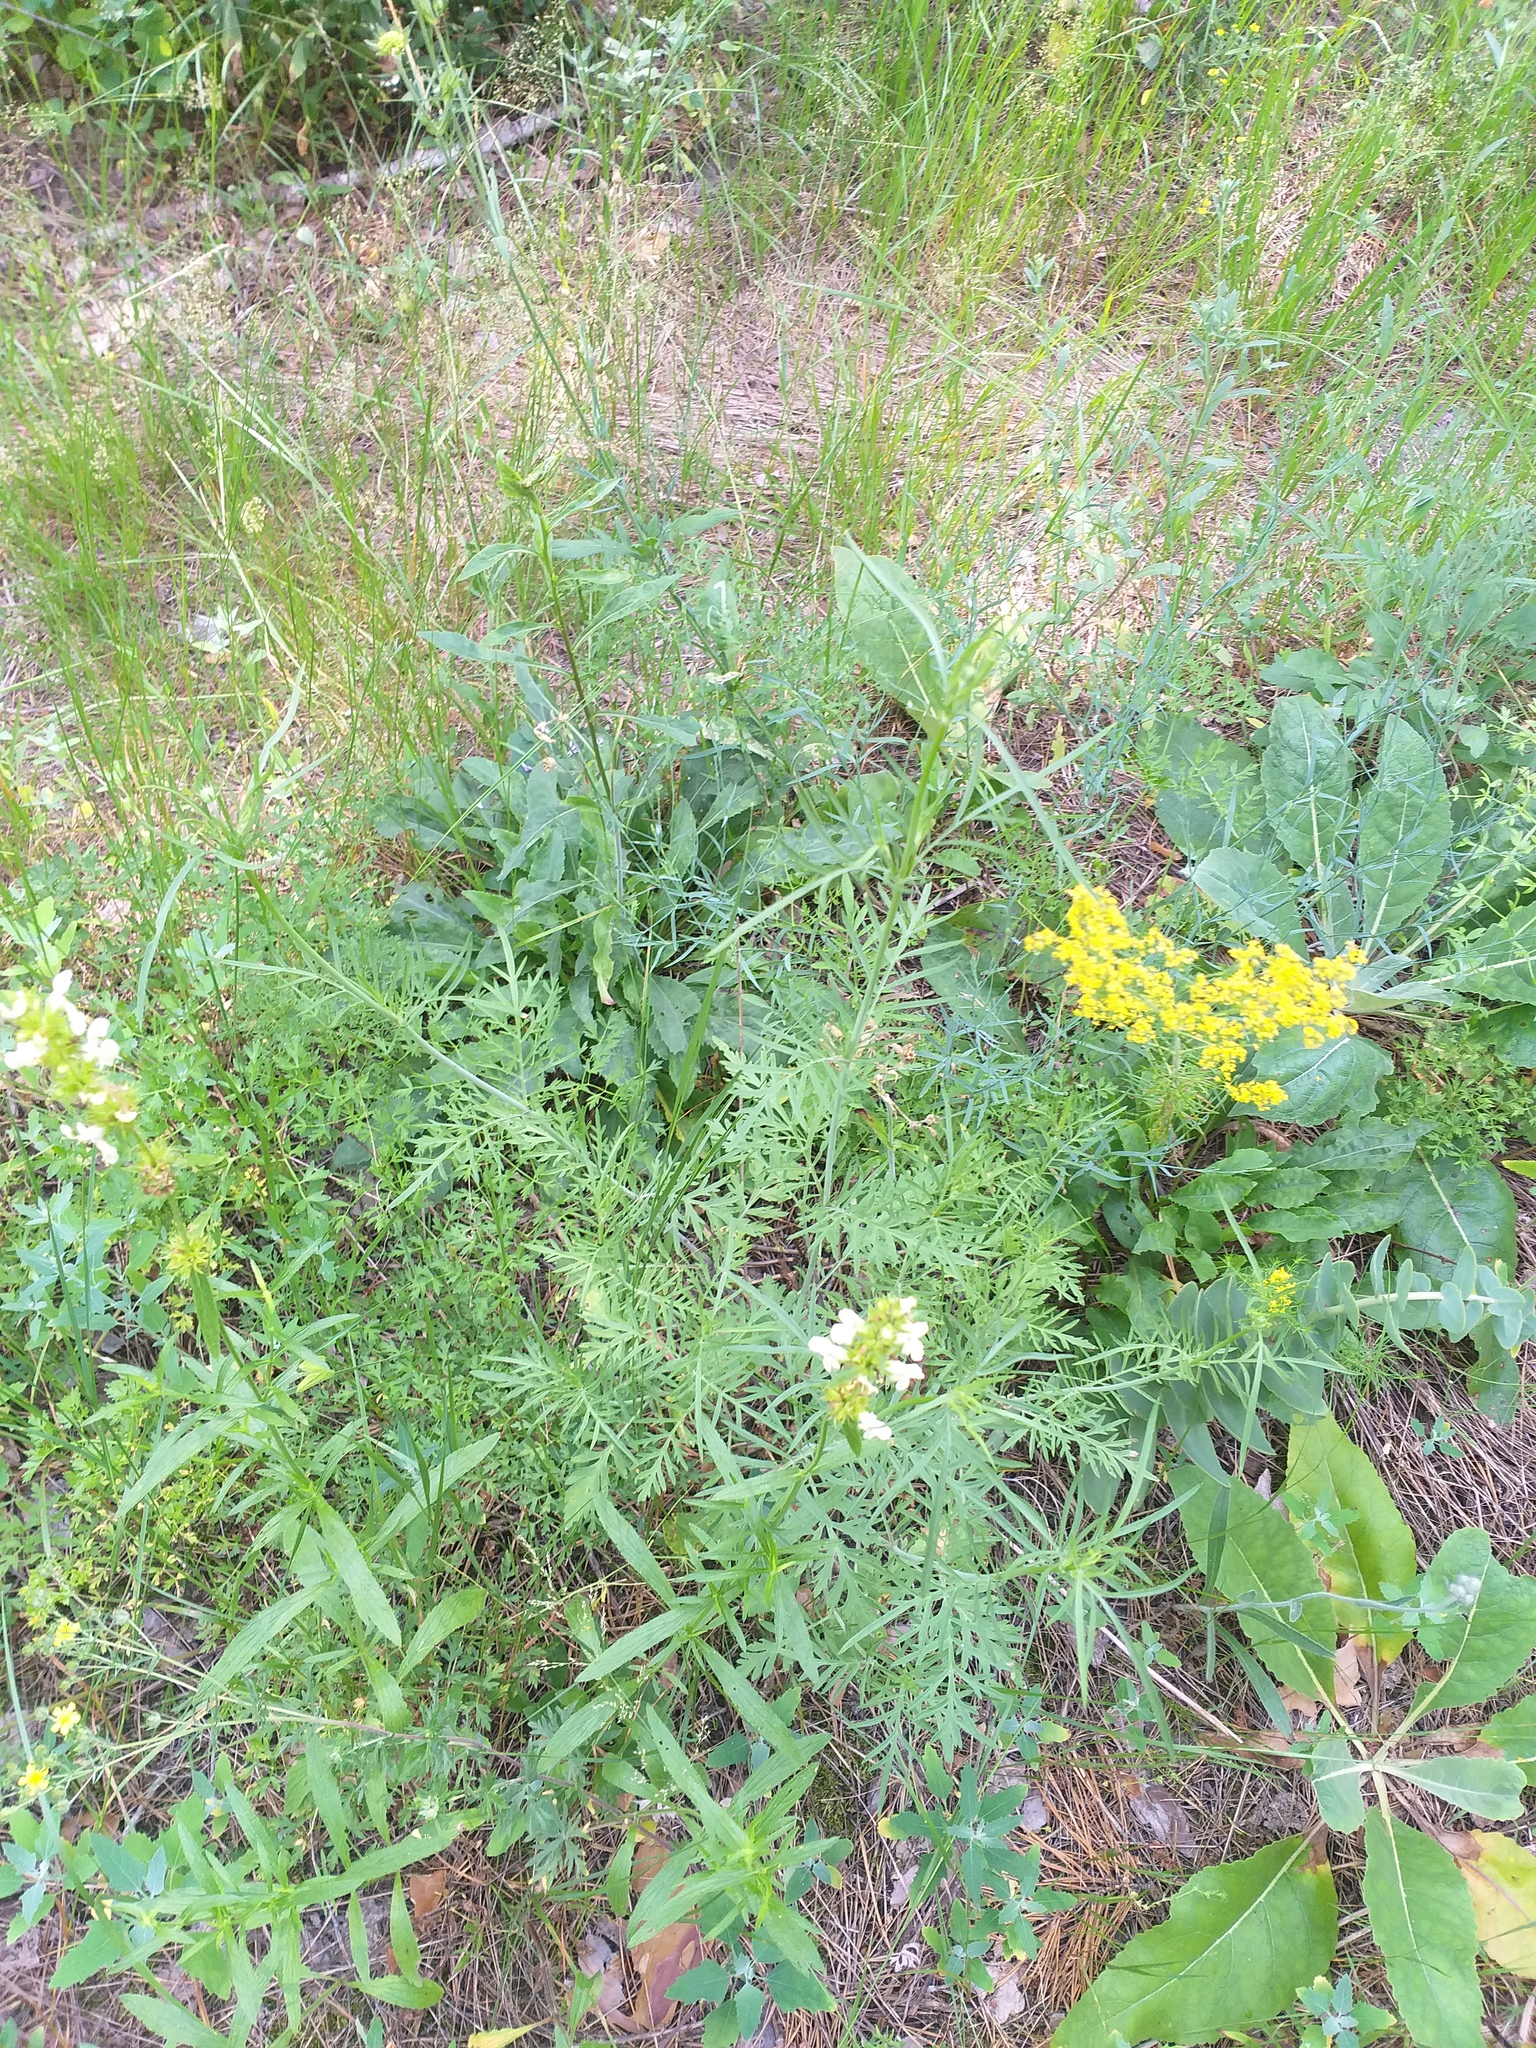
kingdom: Plantae
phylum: Tracheophyta
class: Magnoliopsida
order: Dipsacales
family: Caprifoliaceae
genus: Scabiosa
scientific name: Scabiosa ochroleuca
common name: Cream pincushions
